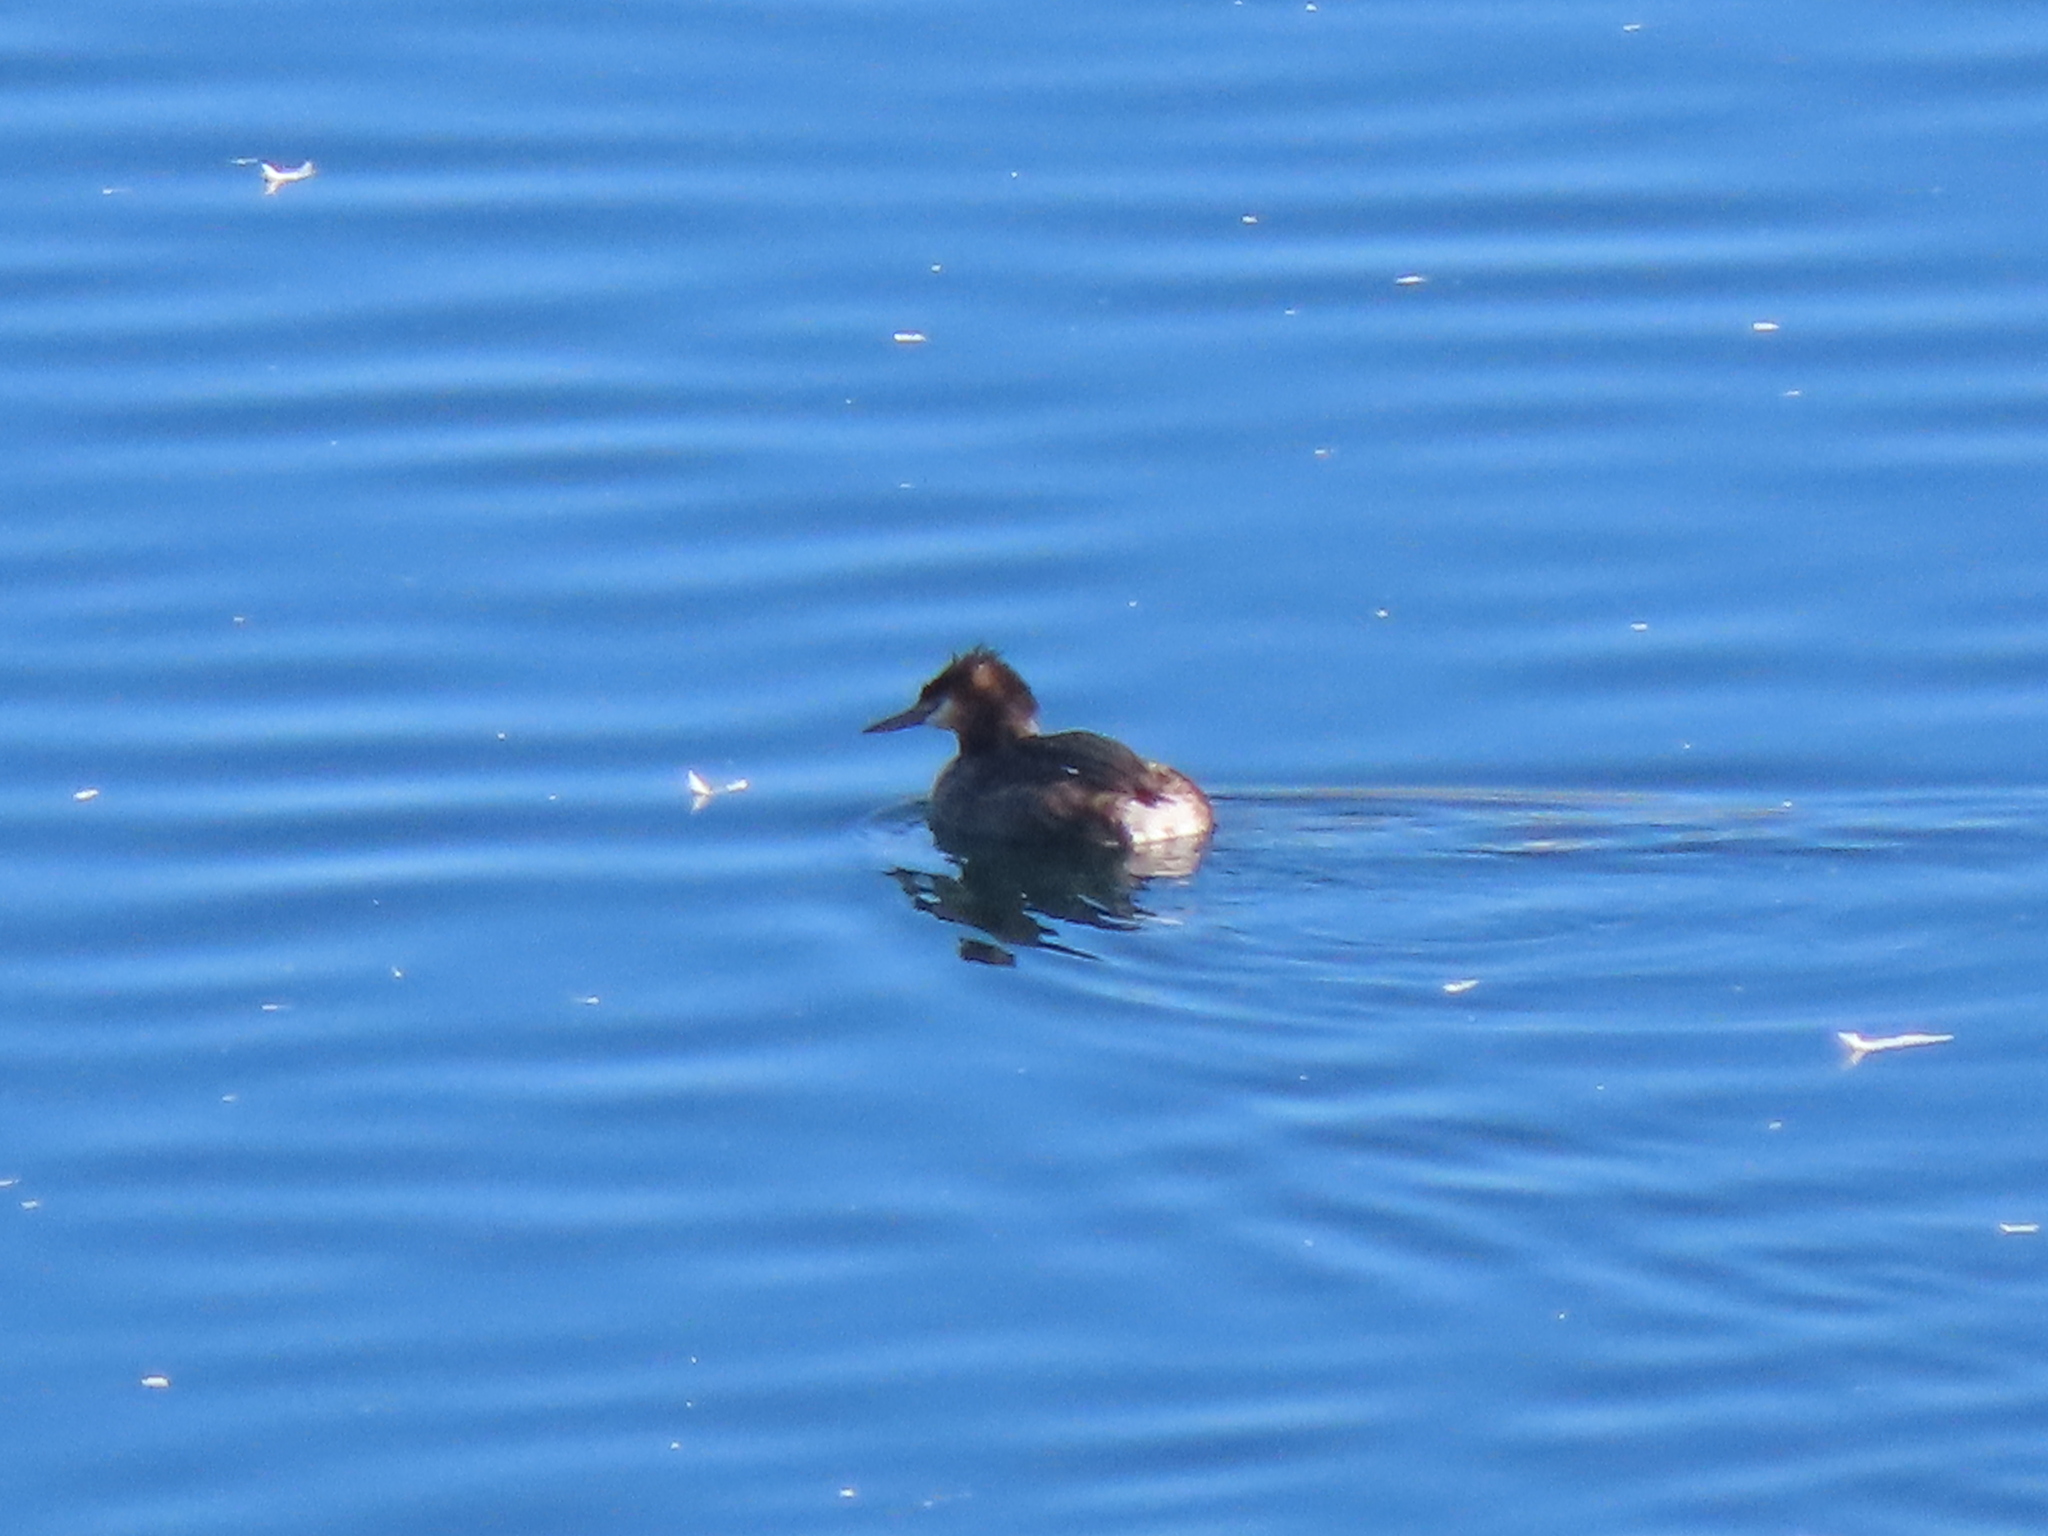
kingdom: Animalia
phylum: Chordata
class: Aves
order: Podicipediformes
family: Podicipedidae
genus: Podiceps
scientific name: Podiceps cristatus
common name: Great crested grebe
